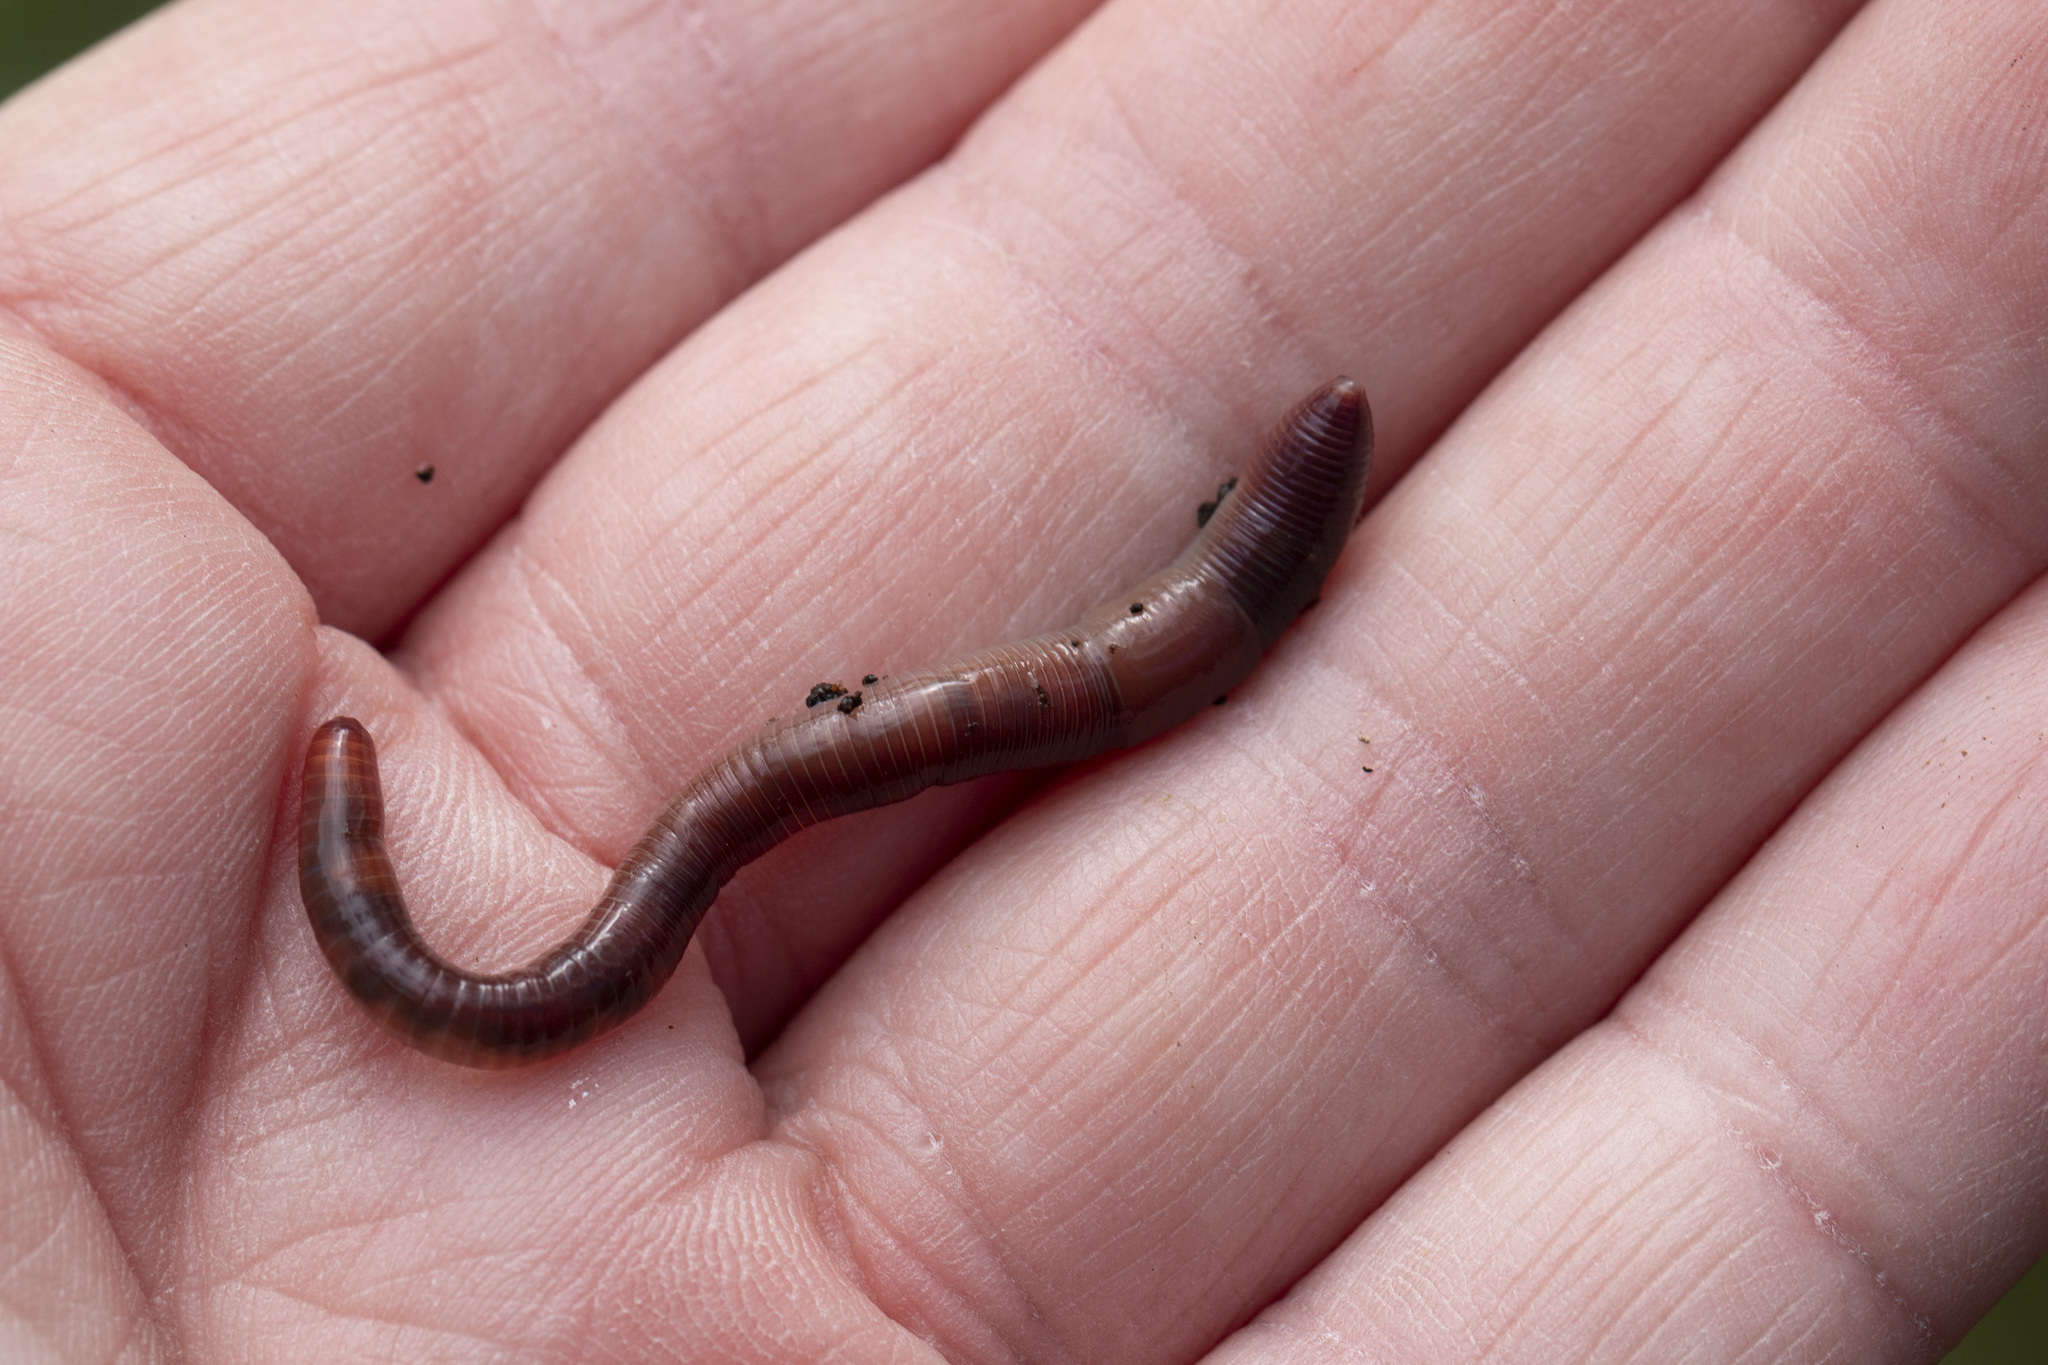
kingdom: Animalia
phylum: Annelida
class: Clitellata
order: Crassiclitellata
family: Lumbricidae
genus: Lumbricus
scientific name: Lumbricus terrestris
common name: Common earthworm
